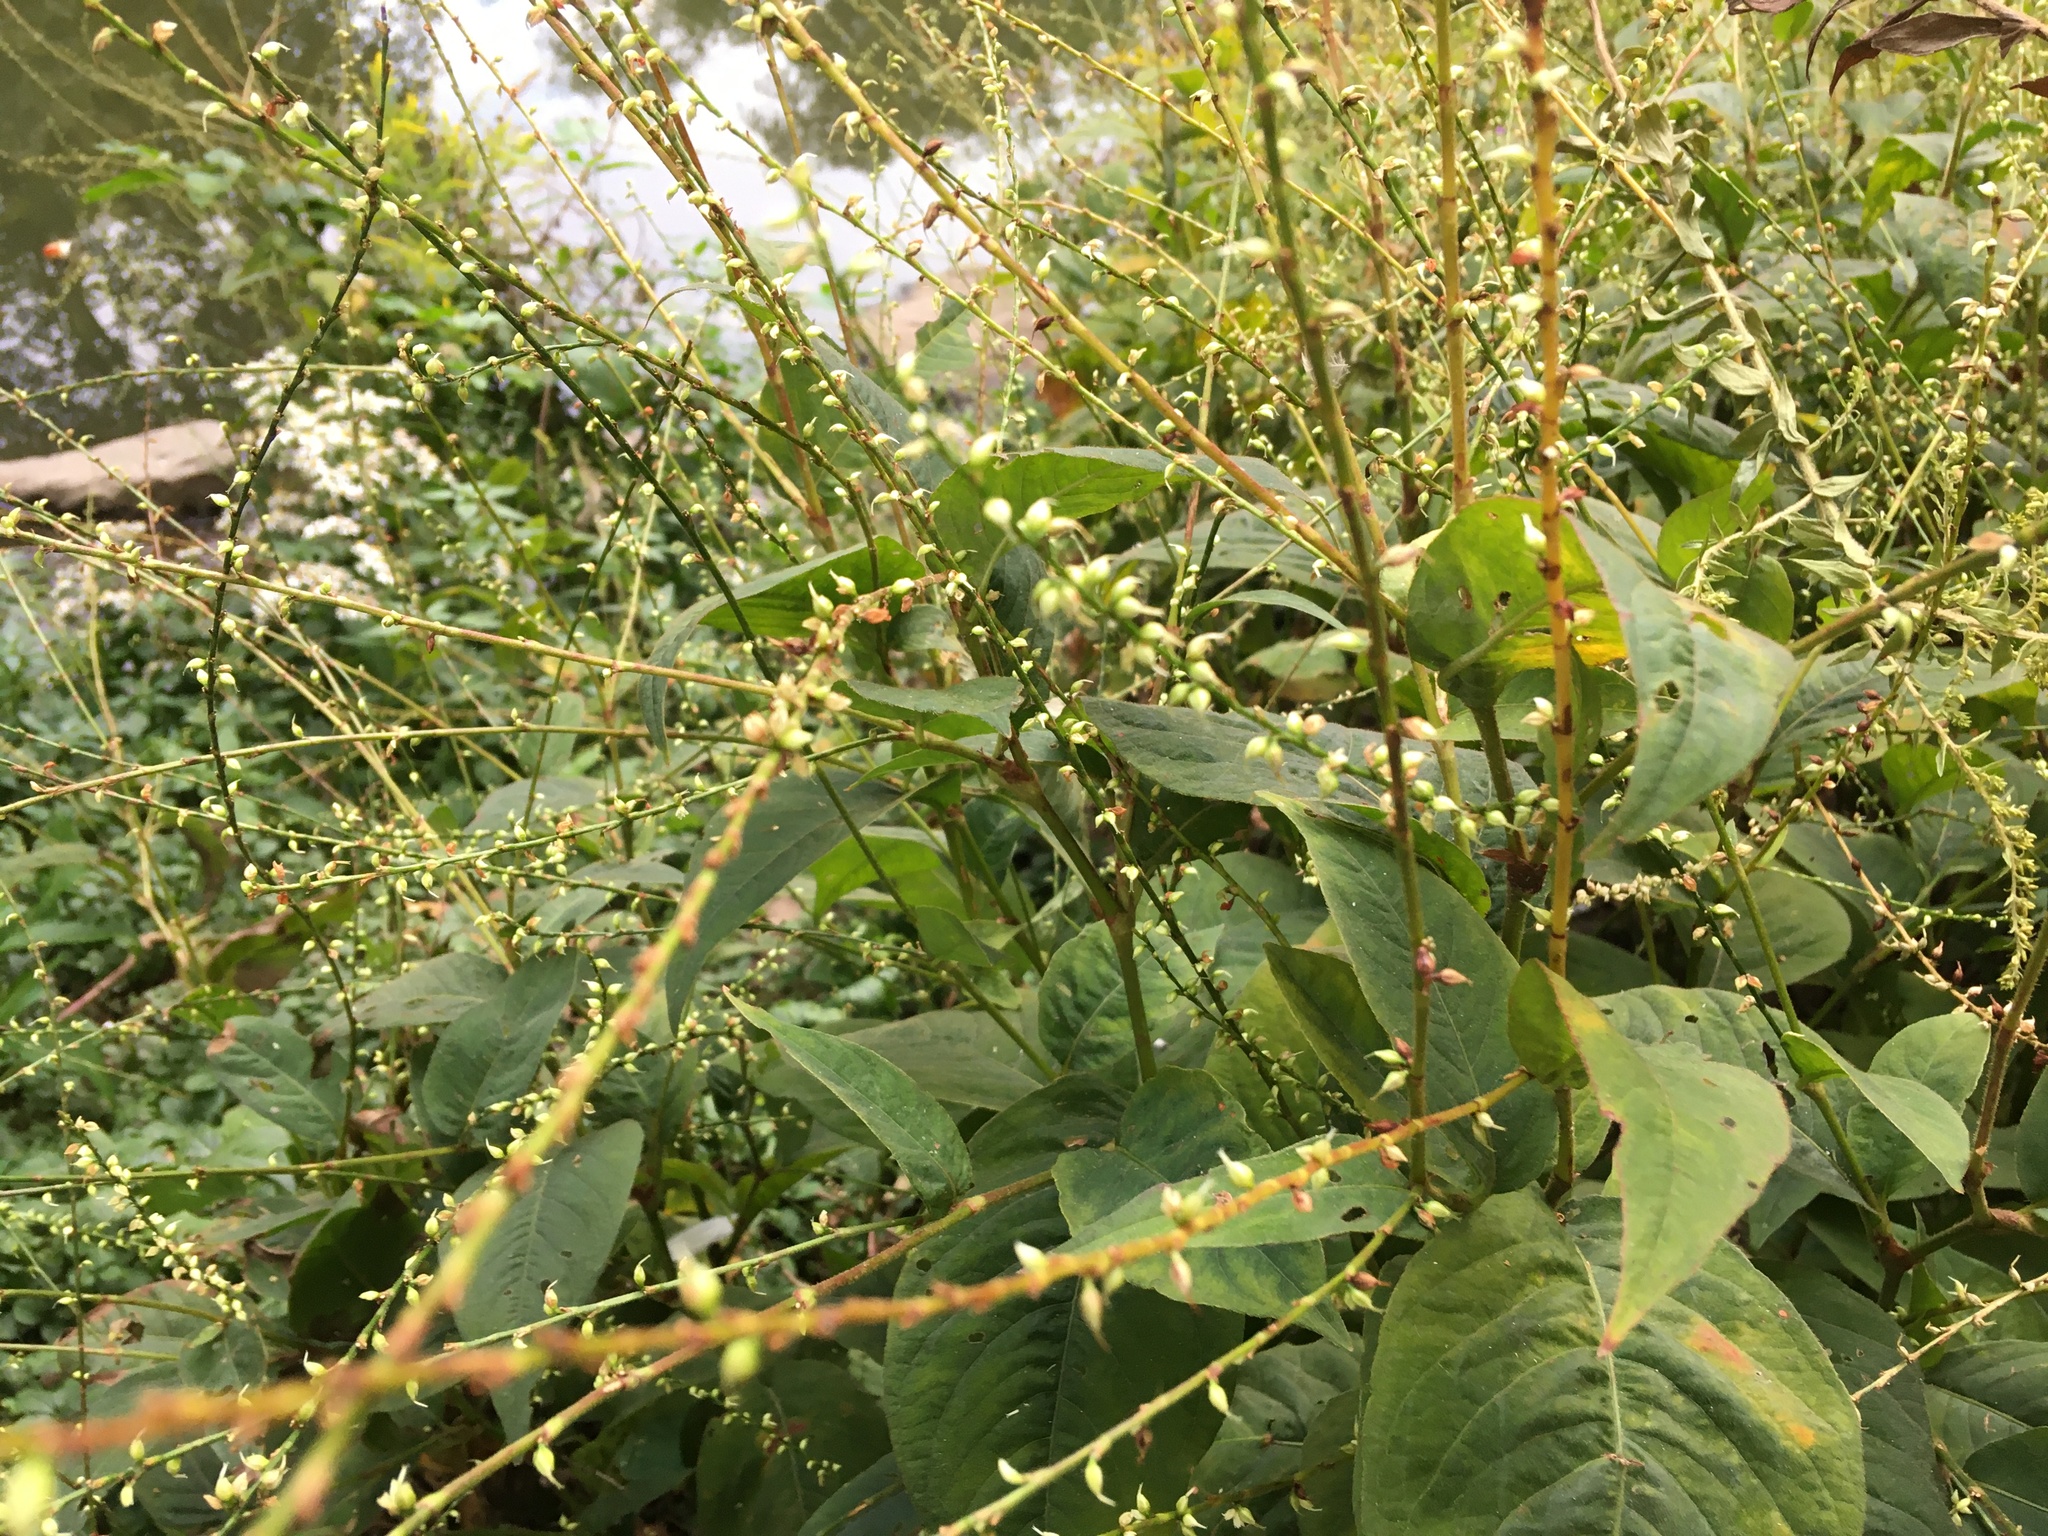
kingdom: Plantae
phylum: Tracheophyta
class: Magnoliopsida
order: Caryophyllales
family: Polygonaceae
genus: Persicaria
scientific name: Persicaria virginiana
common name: Jumpseed
